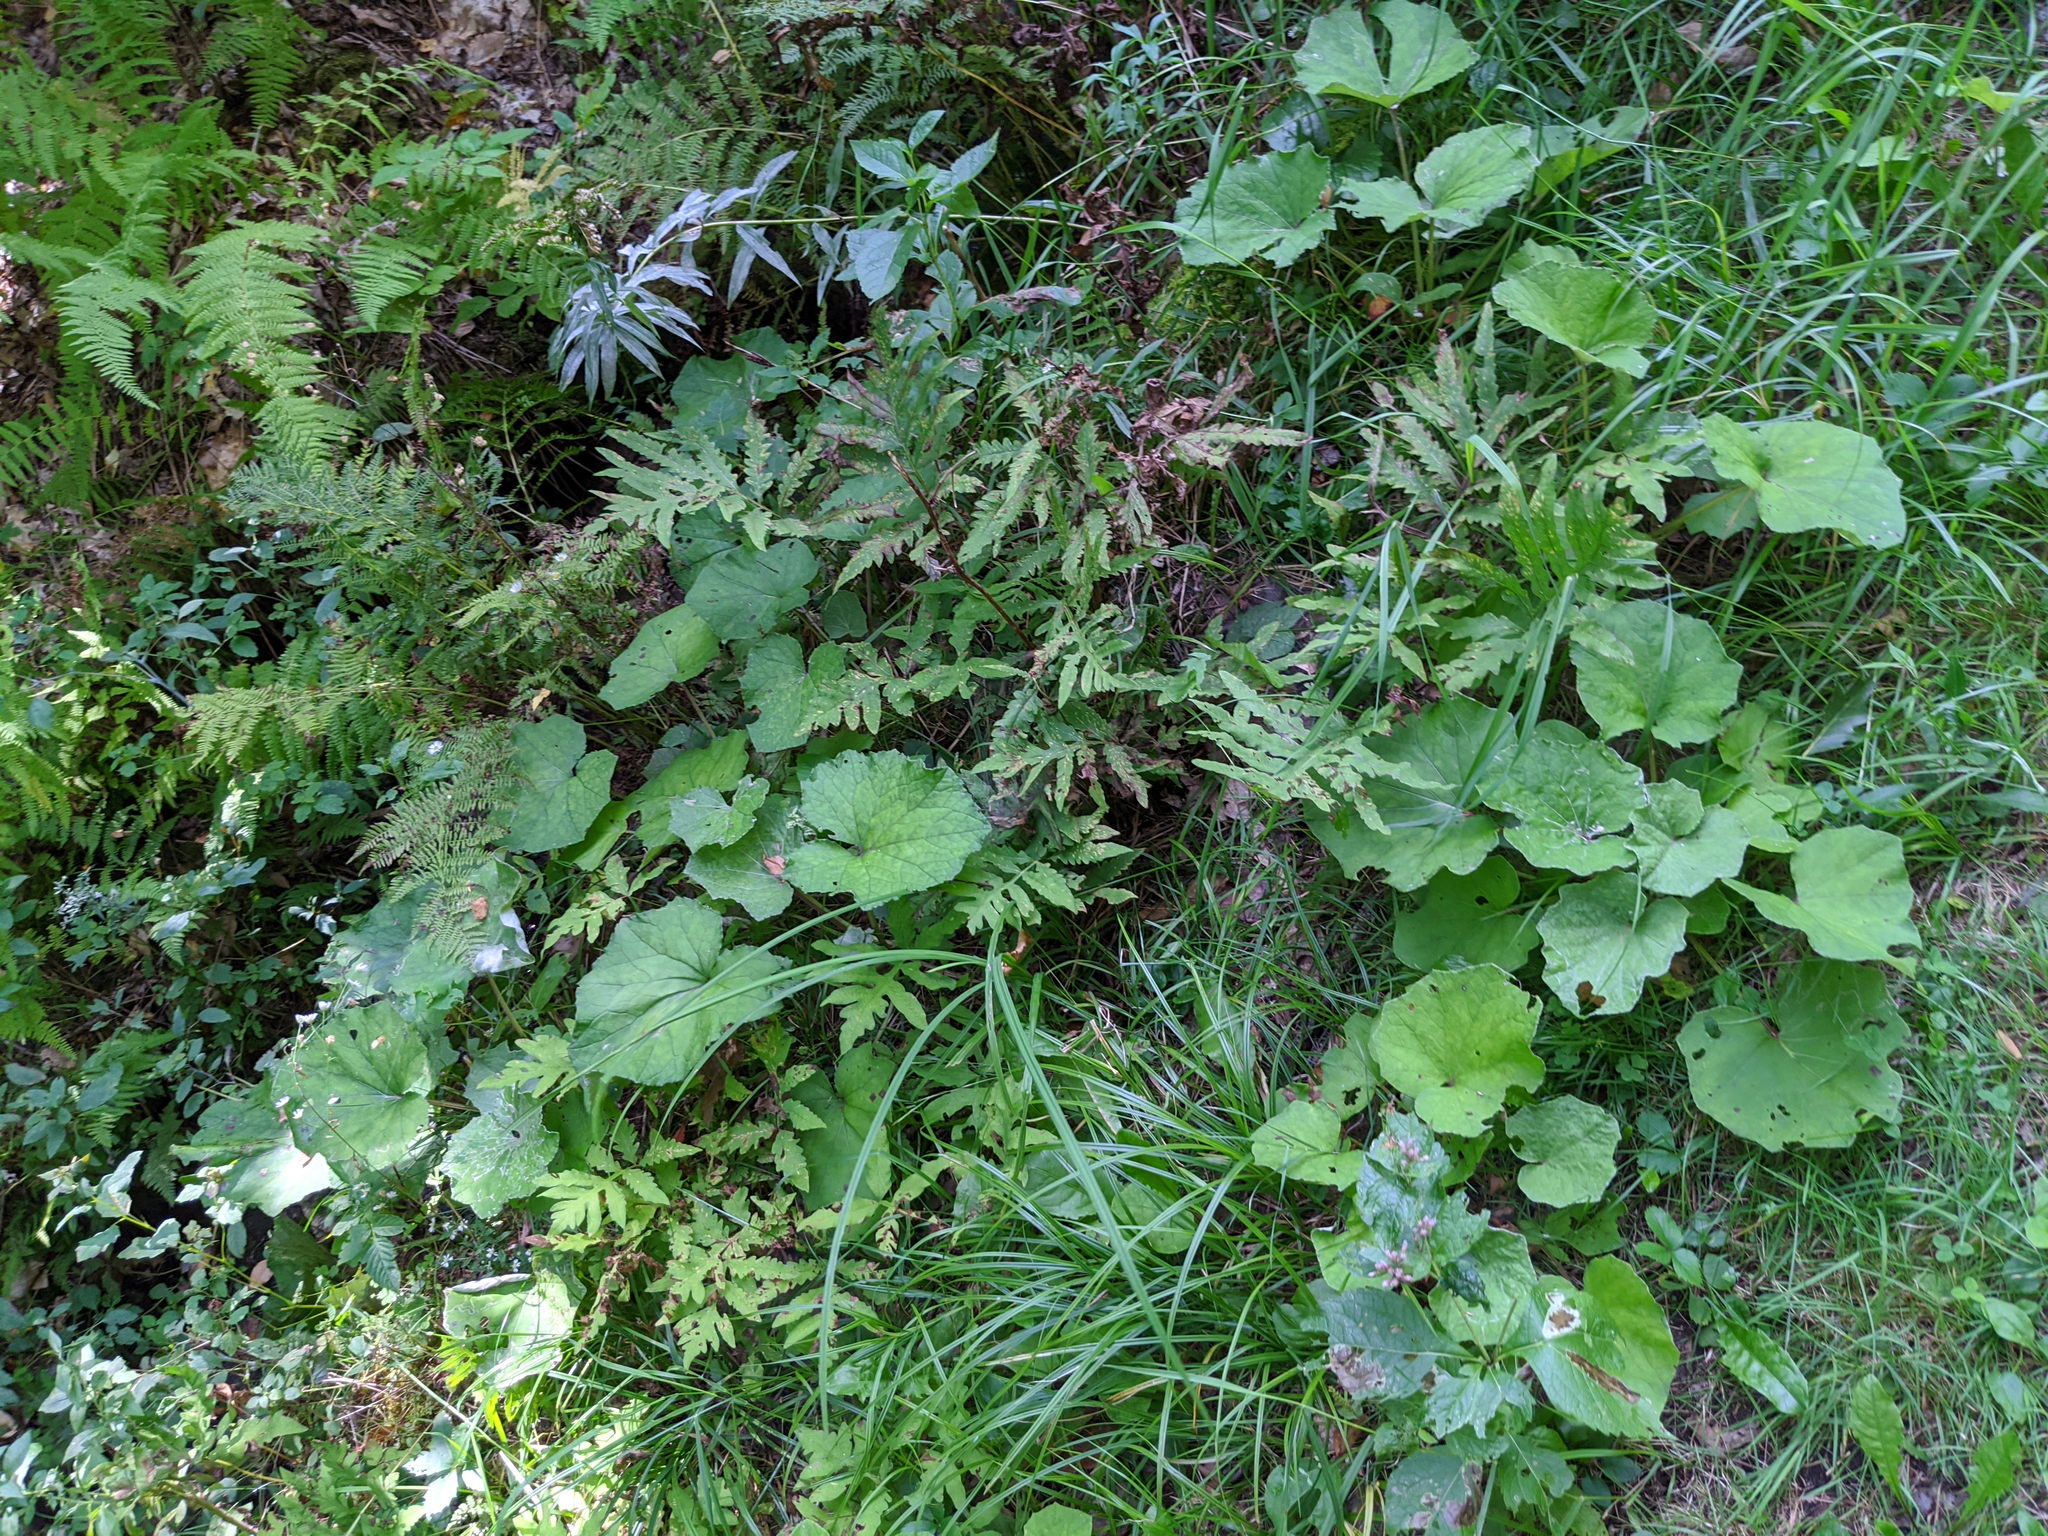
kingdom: Plantae
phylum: Tracheophyta
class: Magnoliopsida
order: Asterales
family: Asteraceae
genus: Tussilago
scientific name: Tussilago farfara
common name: Coltsfoot
